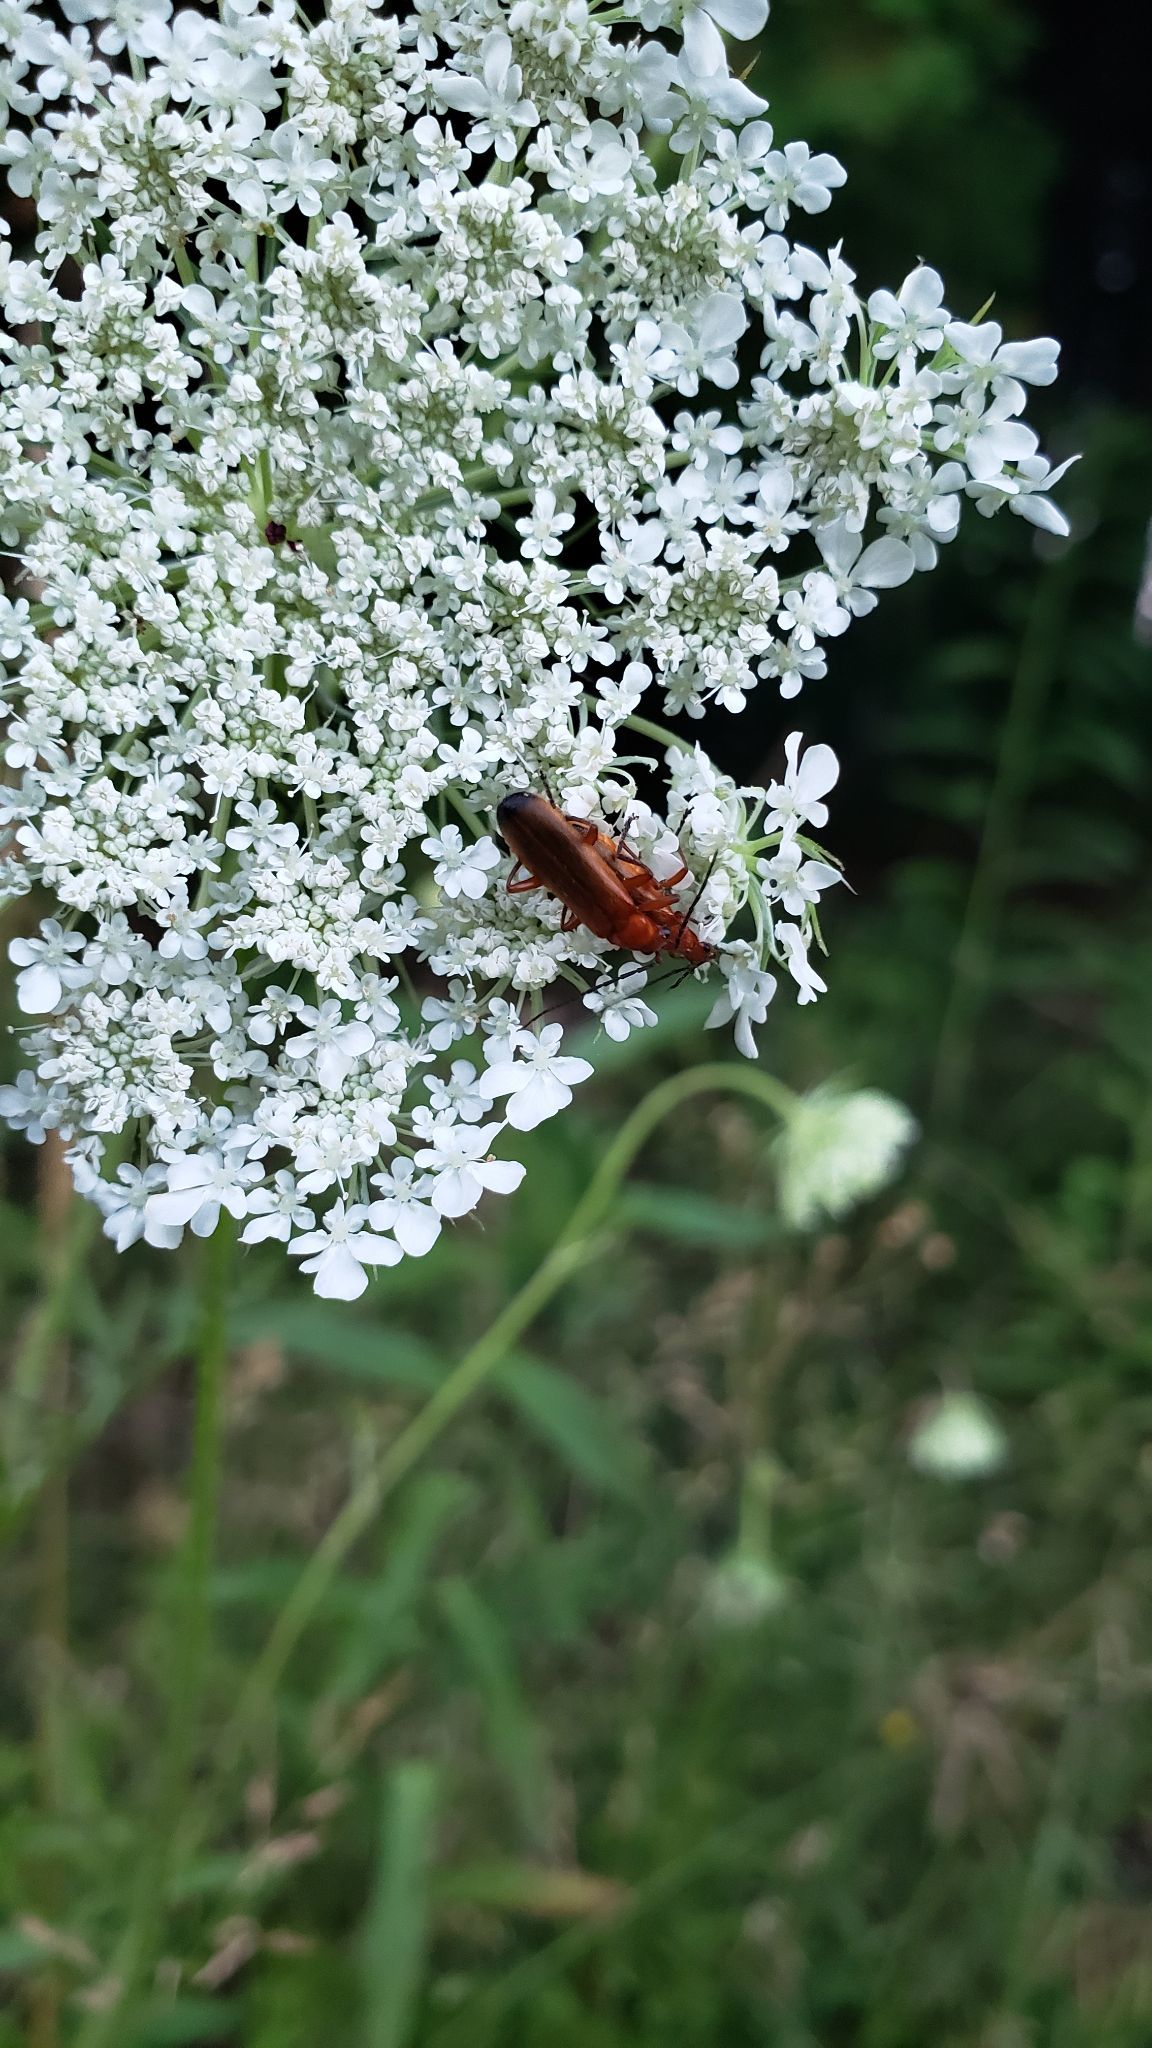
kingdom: Animalia
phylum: Arthropoda
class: Insecta
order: Coleoptera
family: Cantharidae
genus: Rhagonycha
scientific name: Rhagonycha fulva
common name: Common red soldier beetle
